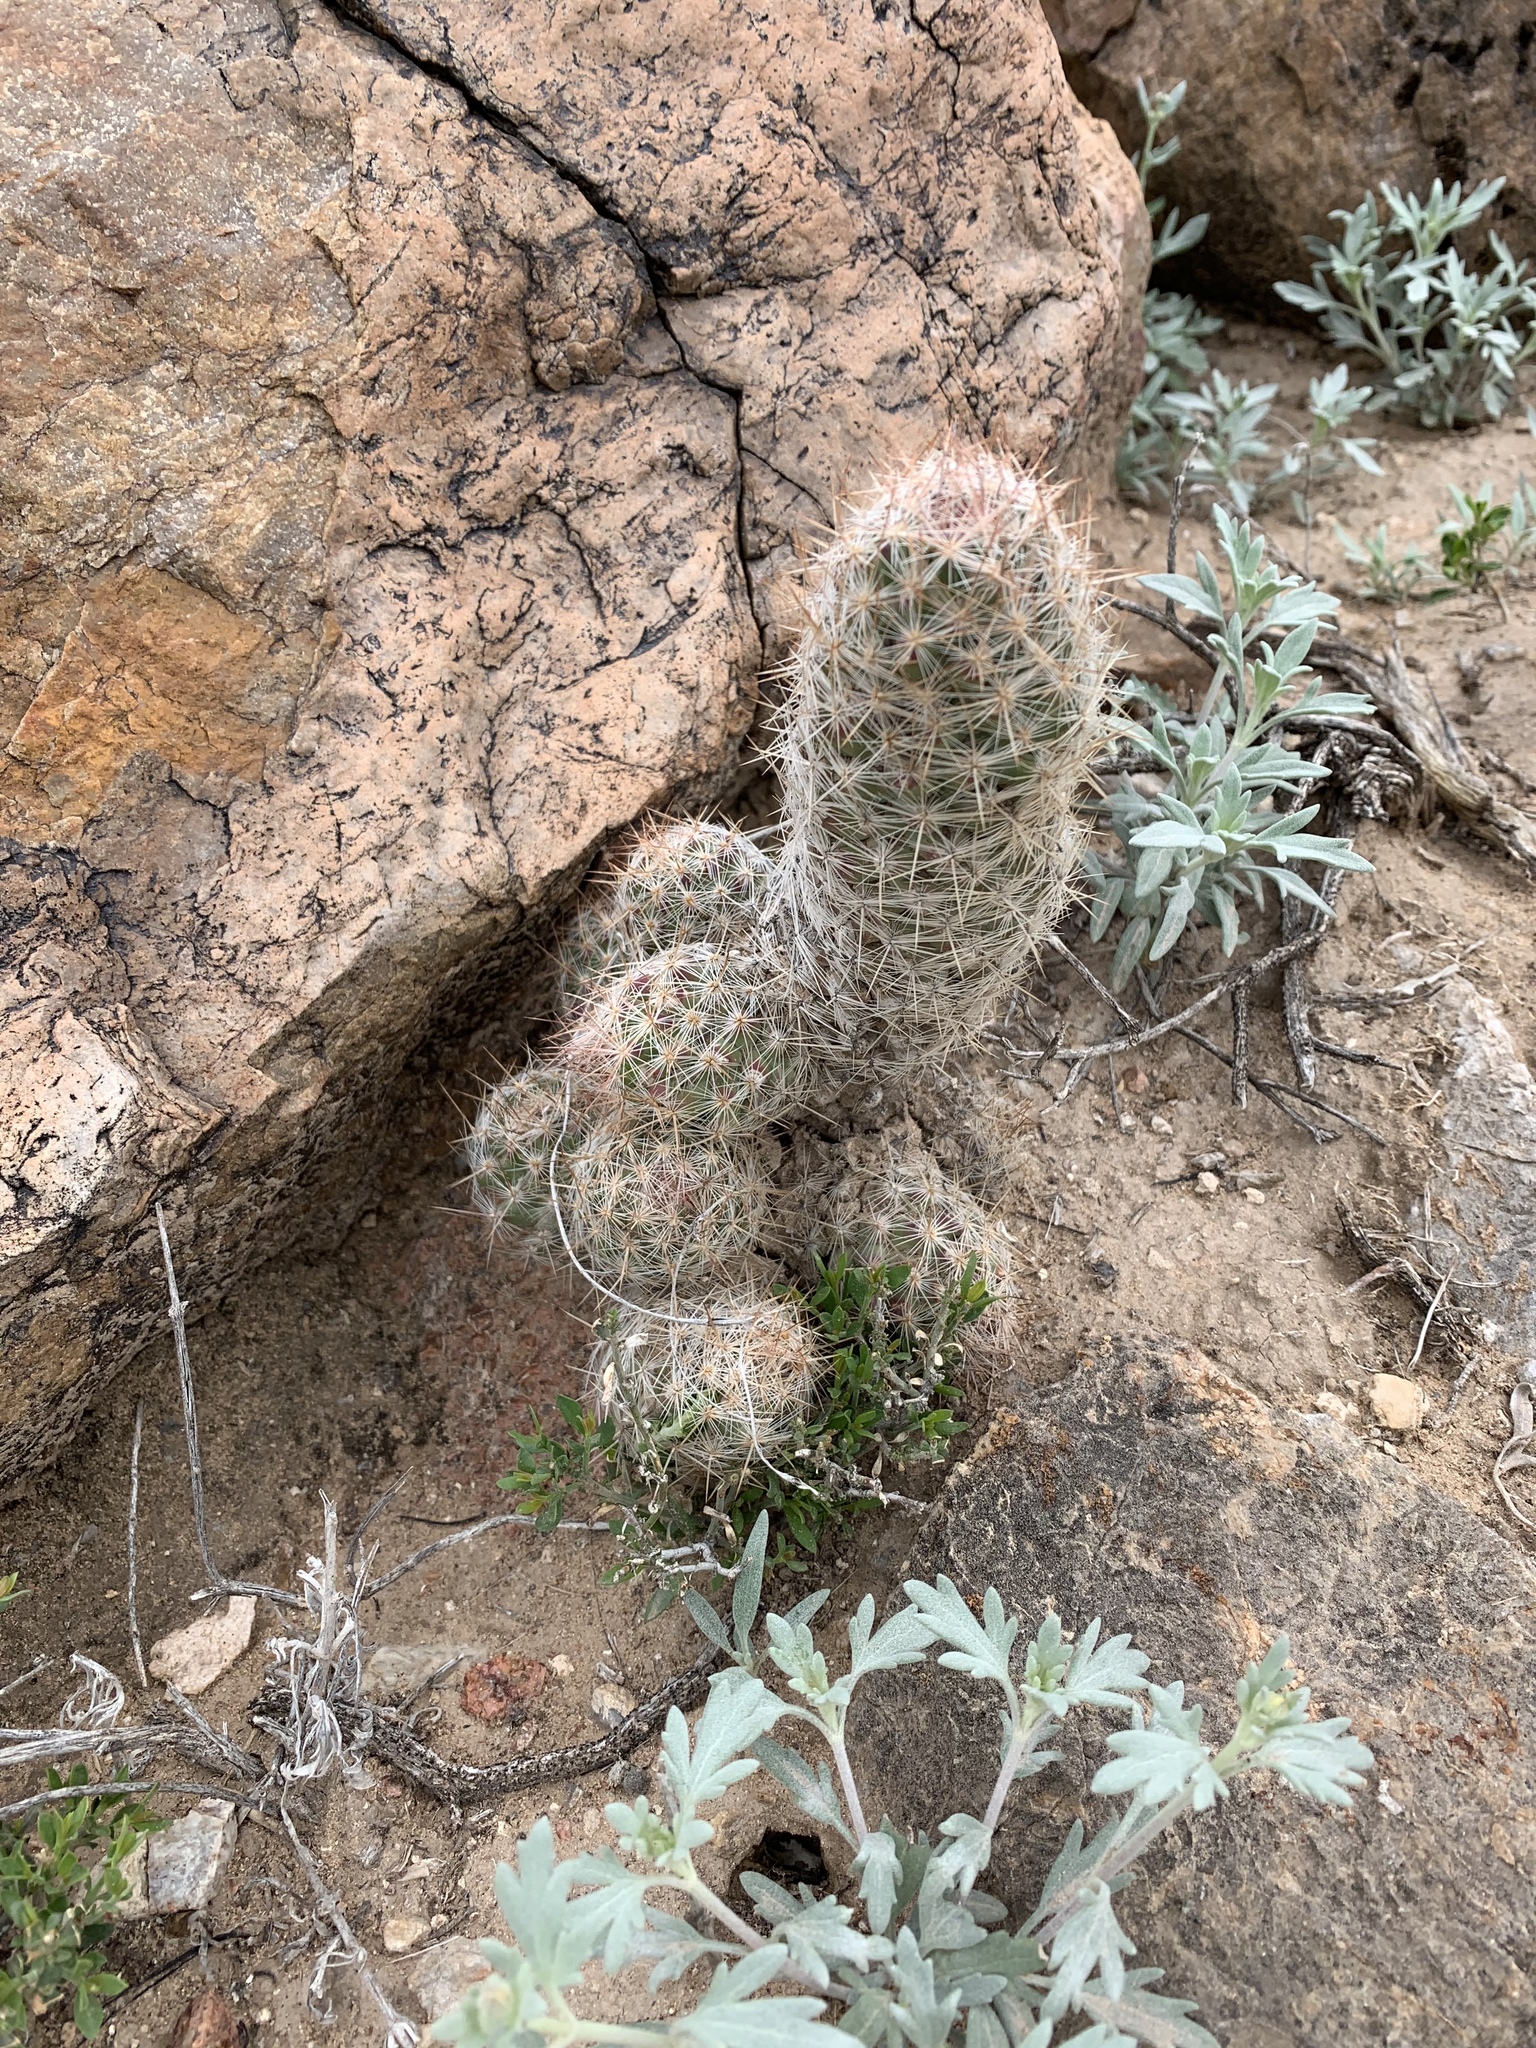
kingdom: Plantae
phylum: Tracheophyta
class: Magnoliopsida
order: Caryophyllales
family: Cactaceae
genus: Pelecyphora
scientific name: Pelecyphora tuberculosa
